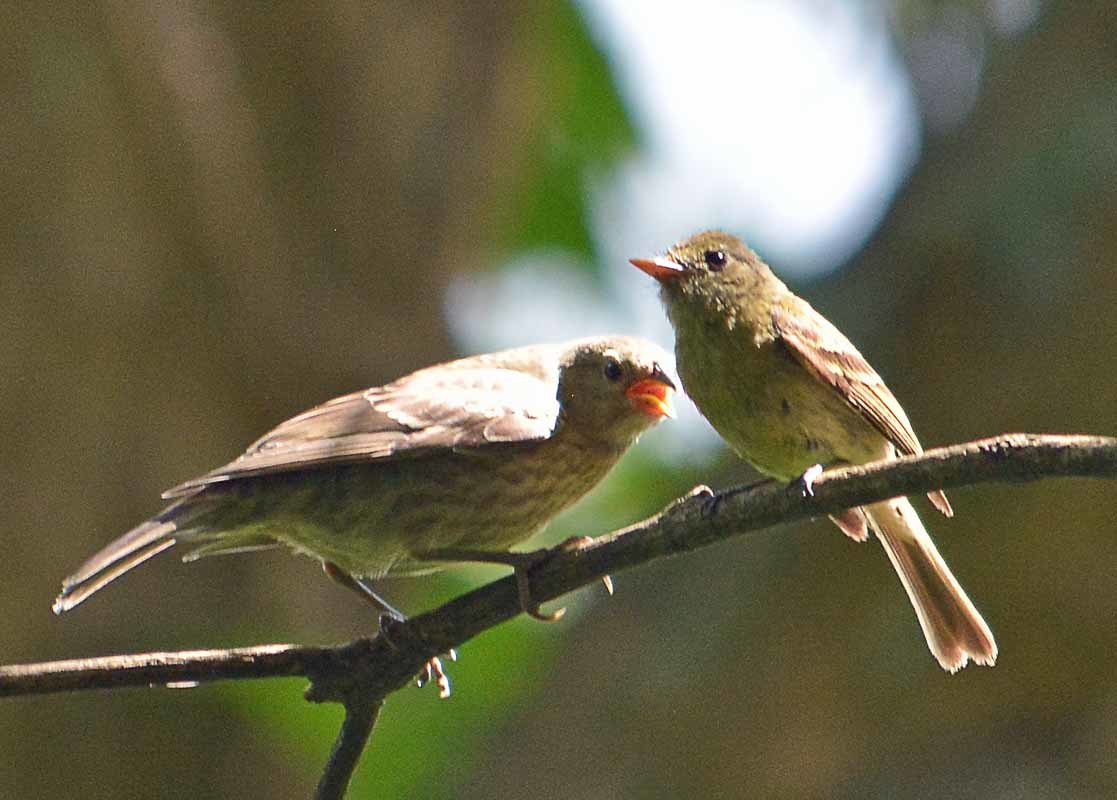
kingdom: Animalia
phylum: Chordata
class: Aves
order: Passeriformes
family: Icteridae
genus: Molothrus
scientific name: Molothrus ater
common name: Brown-headed cowbird
